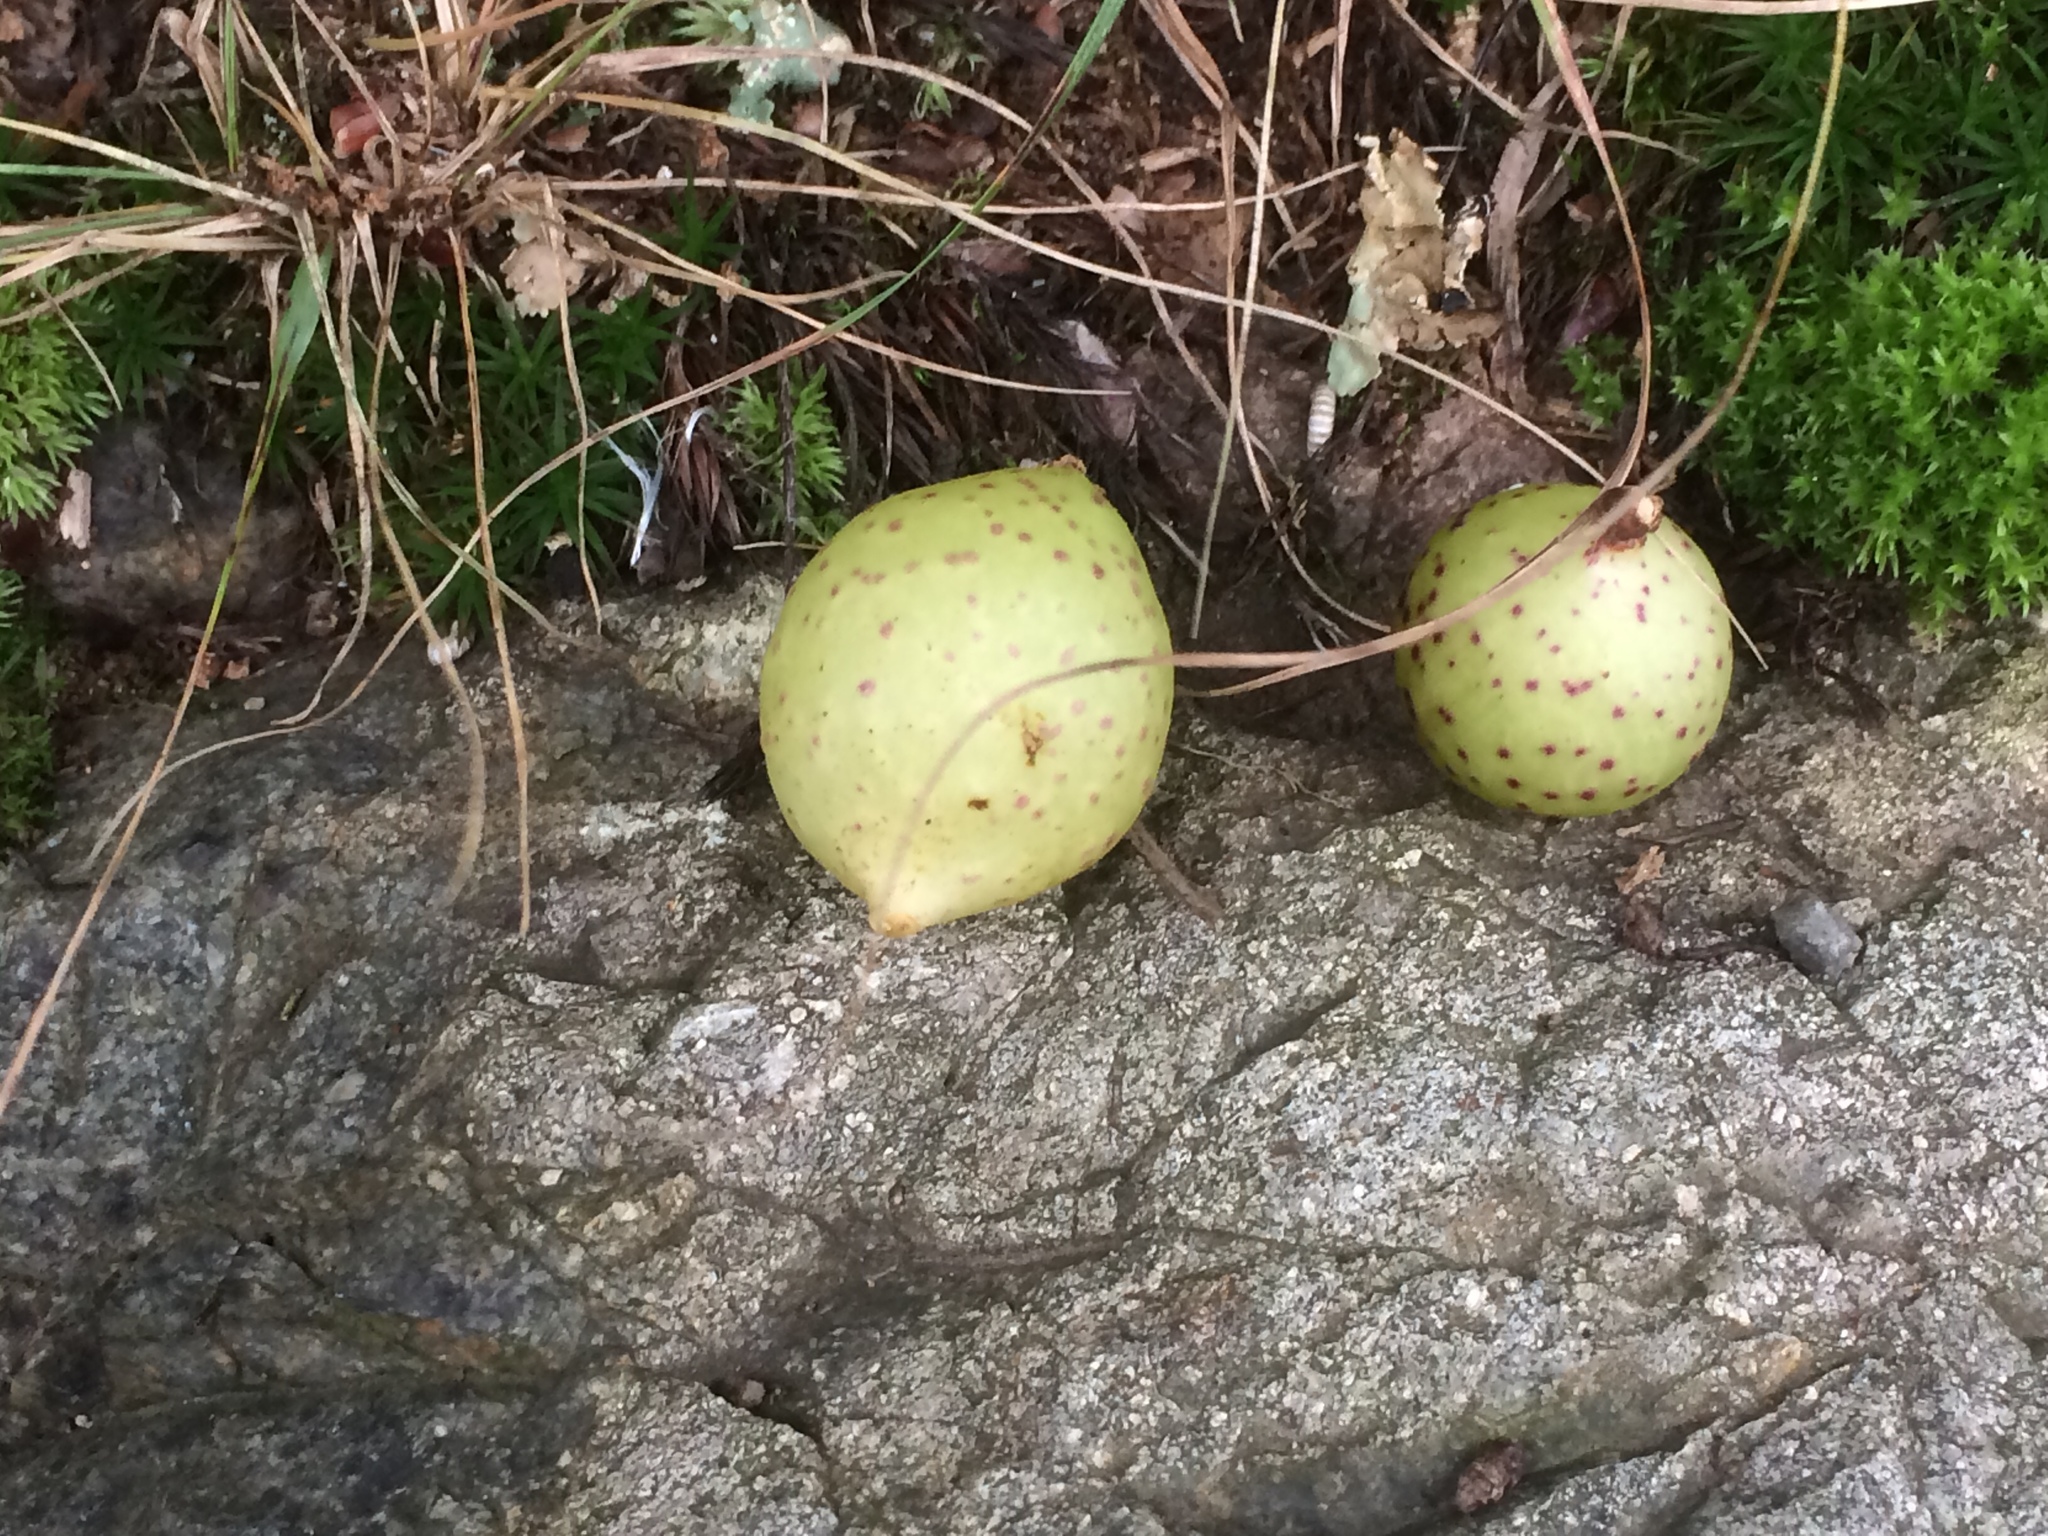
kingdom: Animalia
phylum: Arthropoda
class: Insecta
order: Hymenoptera
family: Cynipidae
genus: Amphibolips
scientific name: Amphibolips
